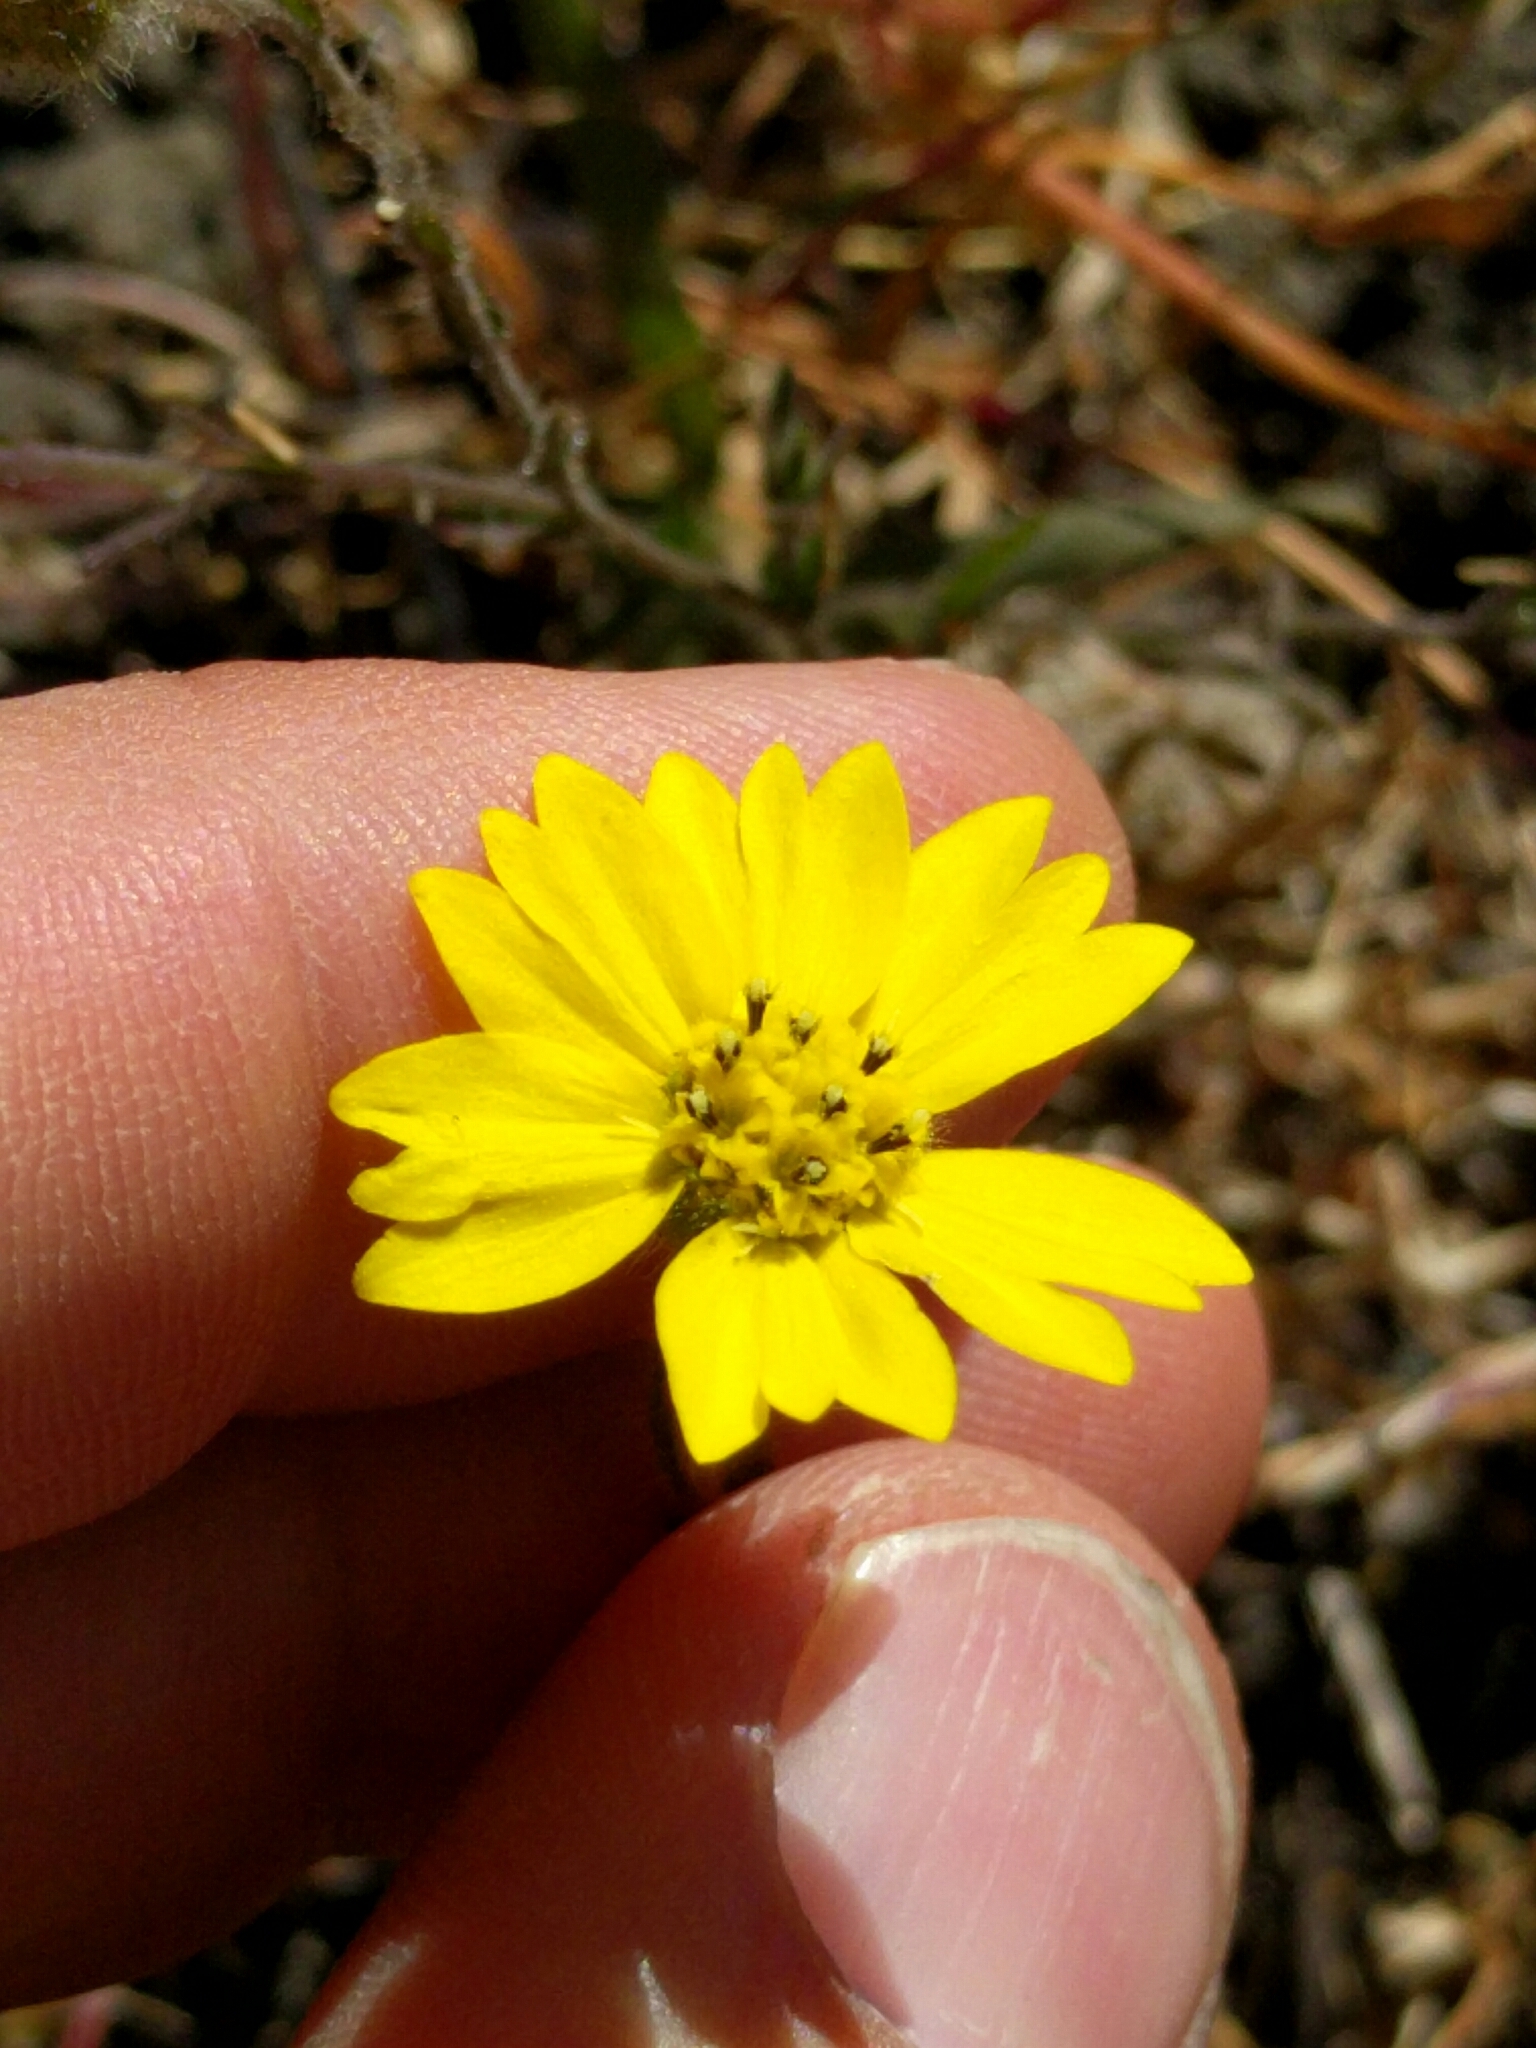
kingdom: Plantae
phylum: Tracheophyta
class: Magnoliopsida
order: Asterales
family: Asteraceae
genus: Hemizonia
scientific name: Hemizonia congesta
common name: Hayfield tarweed
